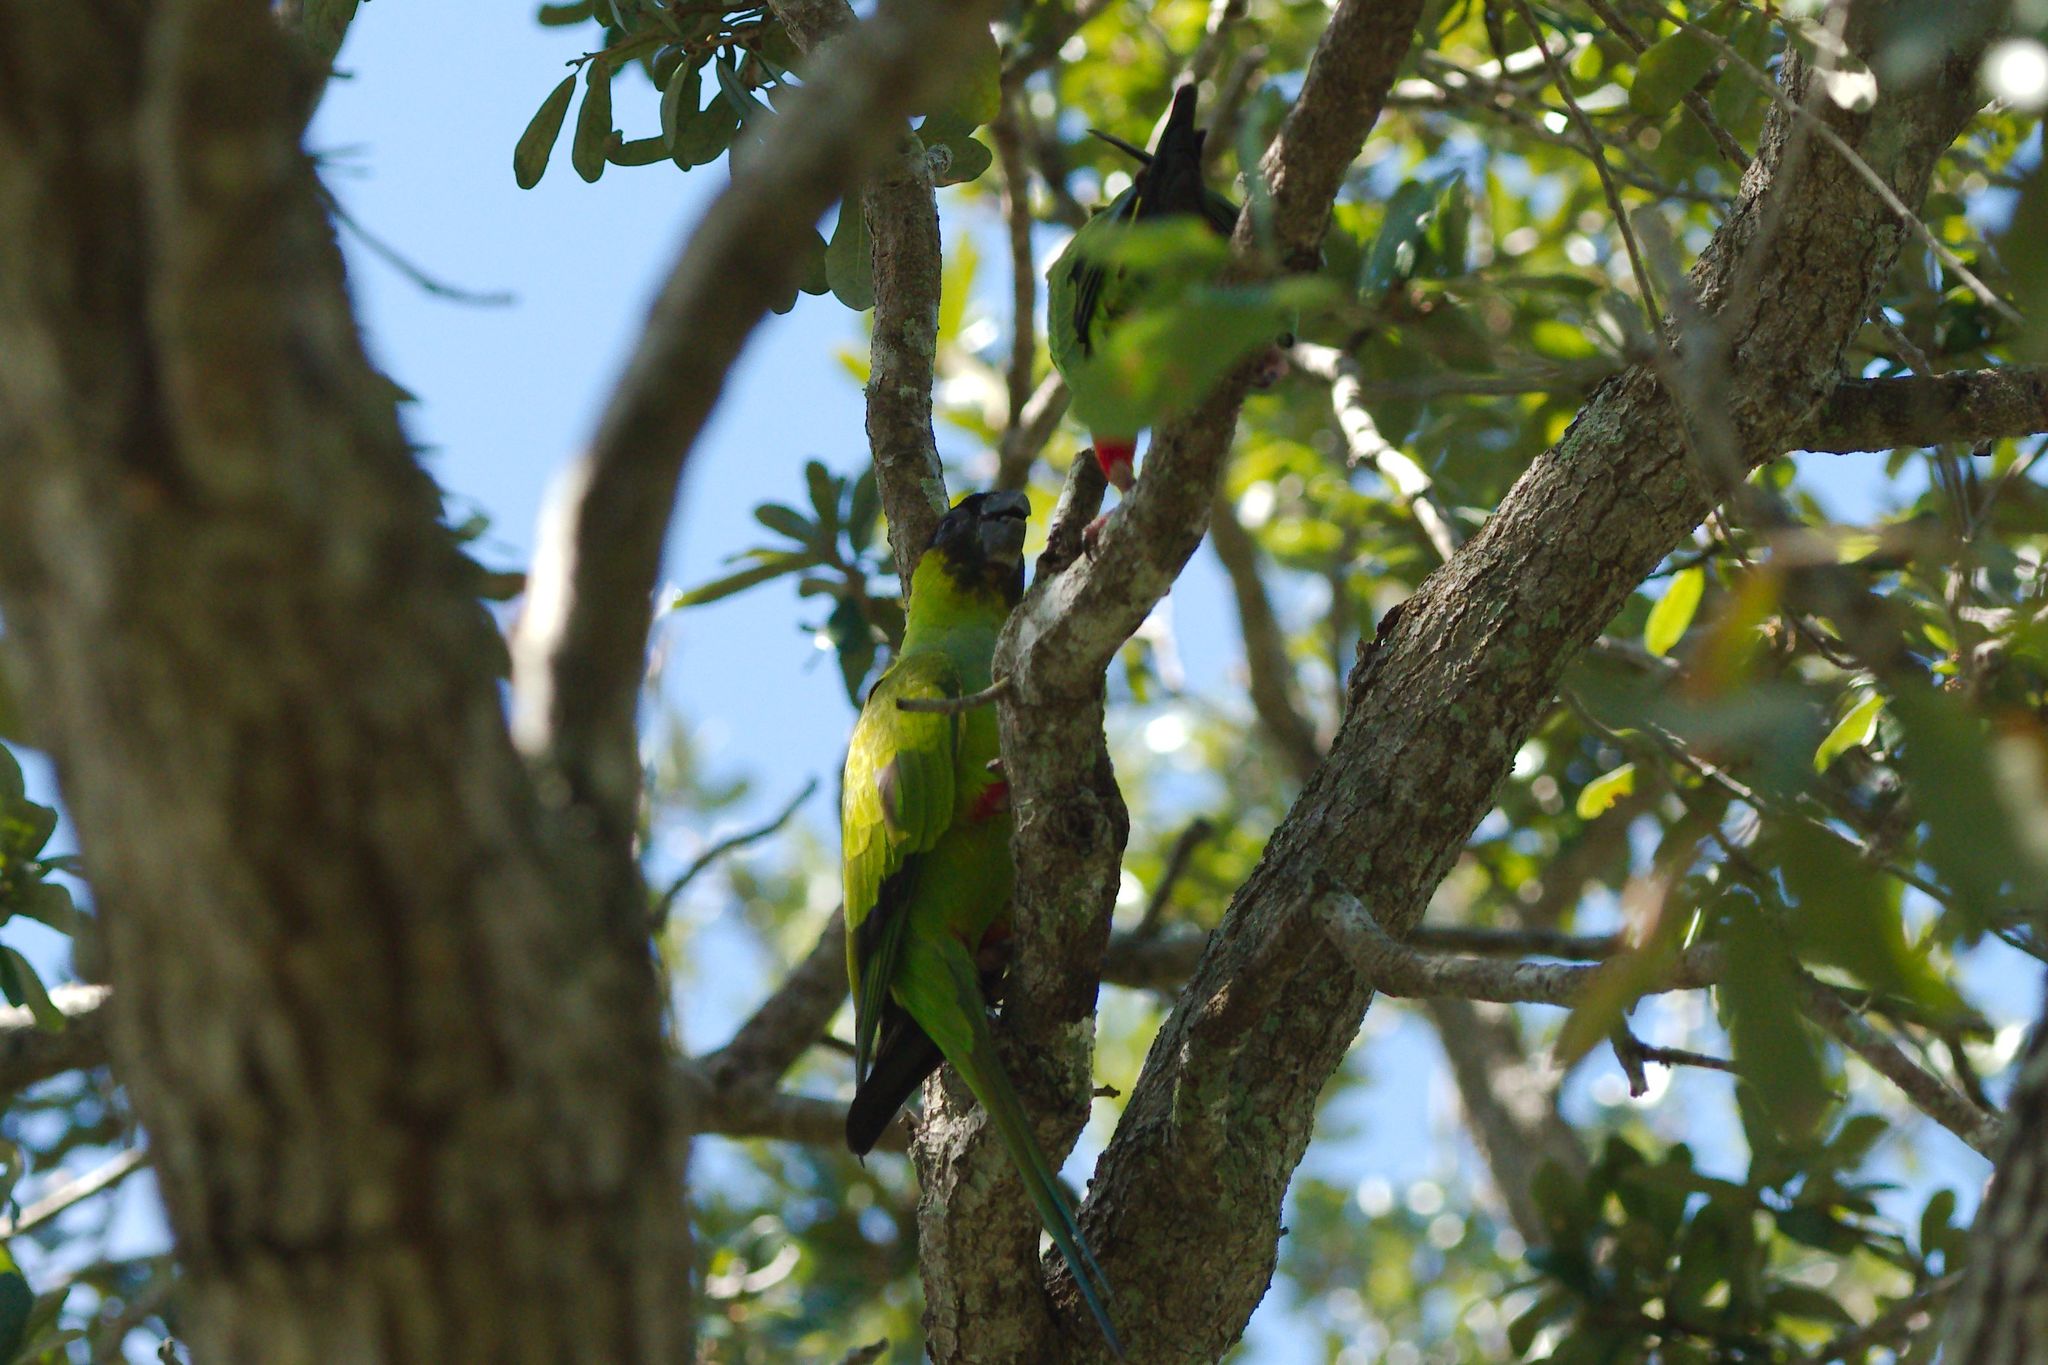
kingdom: Animalia
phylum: Chordata
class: Aves
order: Psittaciformes
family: Psittacidae
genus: Nandayus
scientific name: Nandayus nenday
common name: Nanday parakeet
